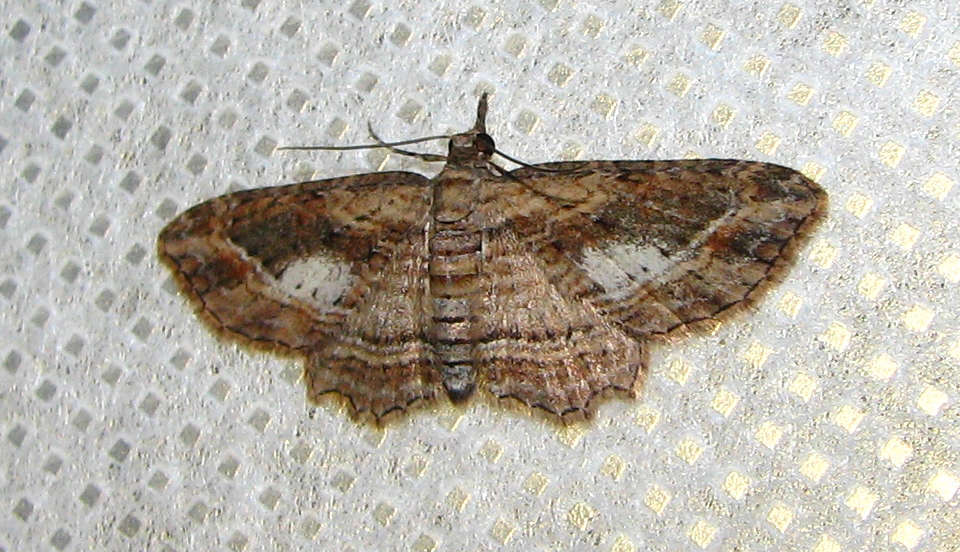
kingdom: Animalia
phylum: Arthropoda
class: Insecta
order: Lepidoptera
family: Geometridae
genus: Chloroclystis
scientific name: Chloroclystis filata
